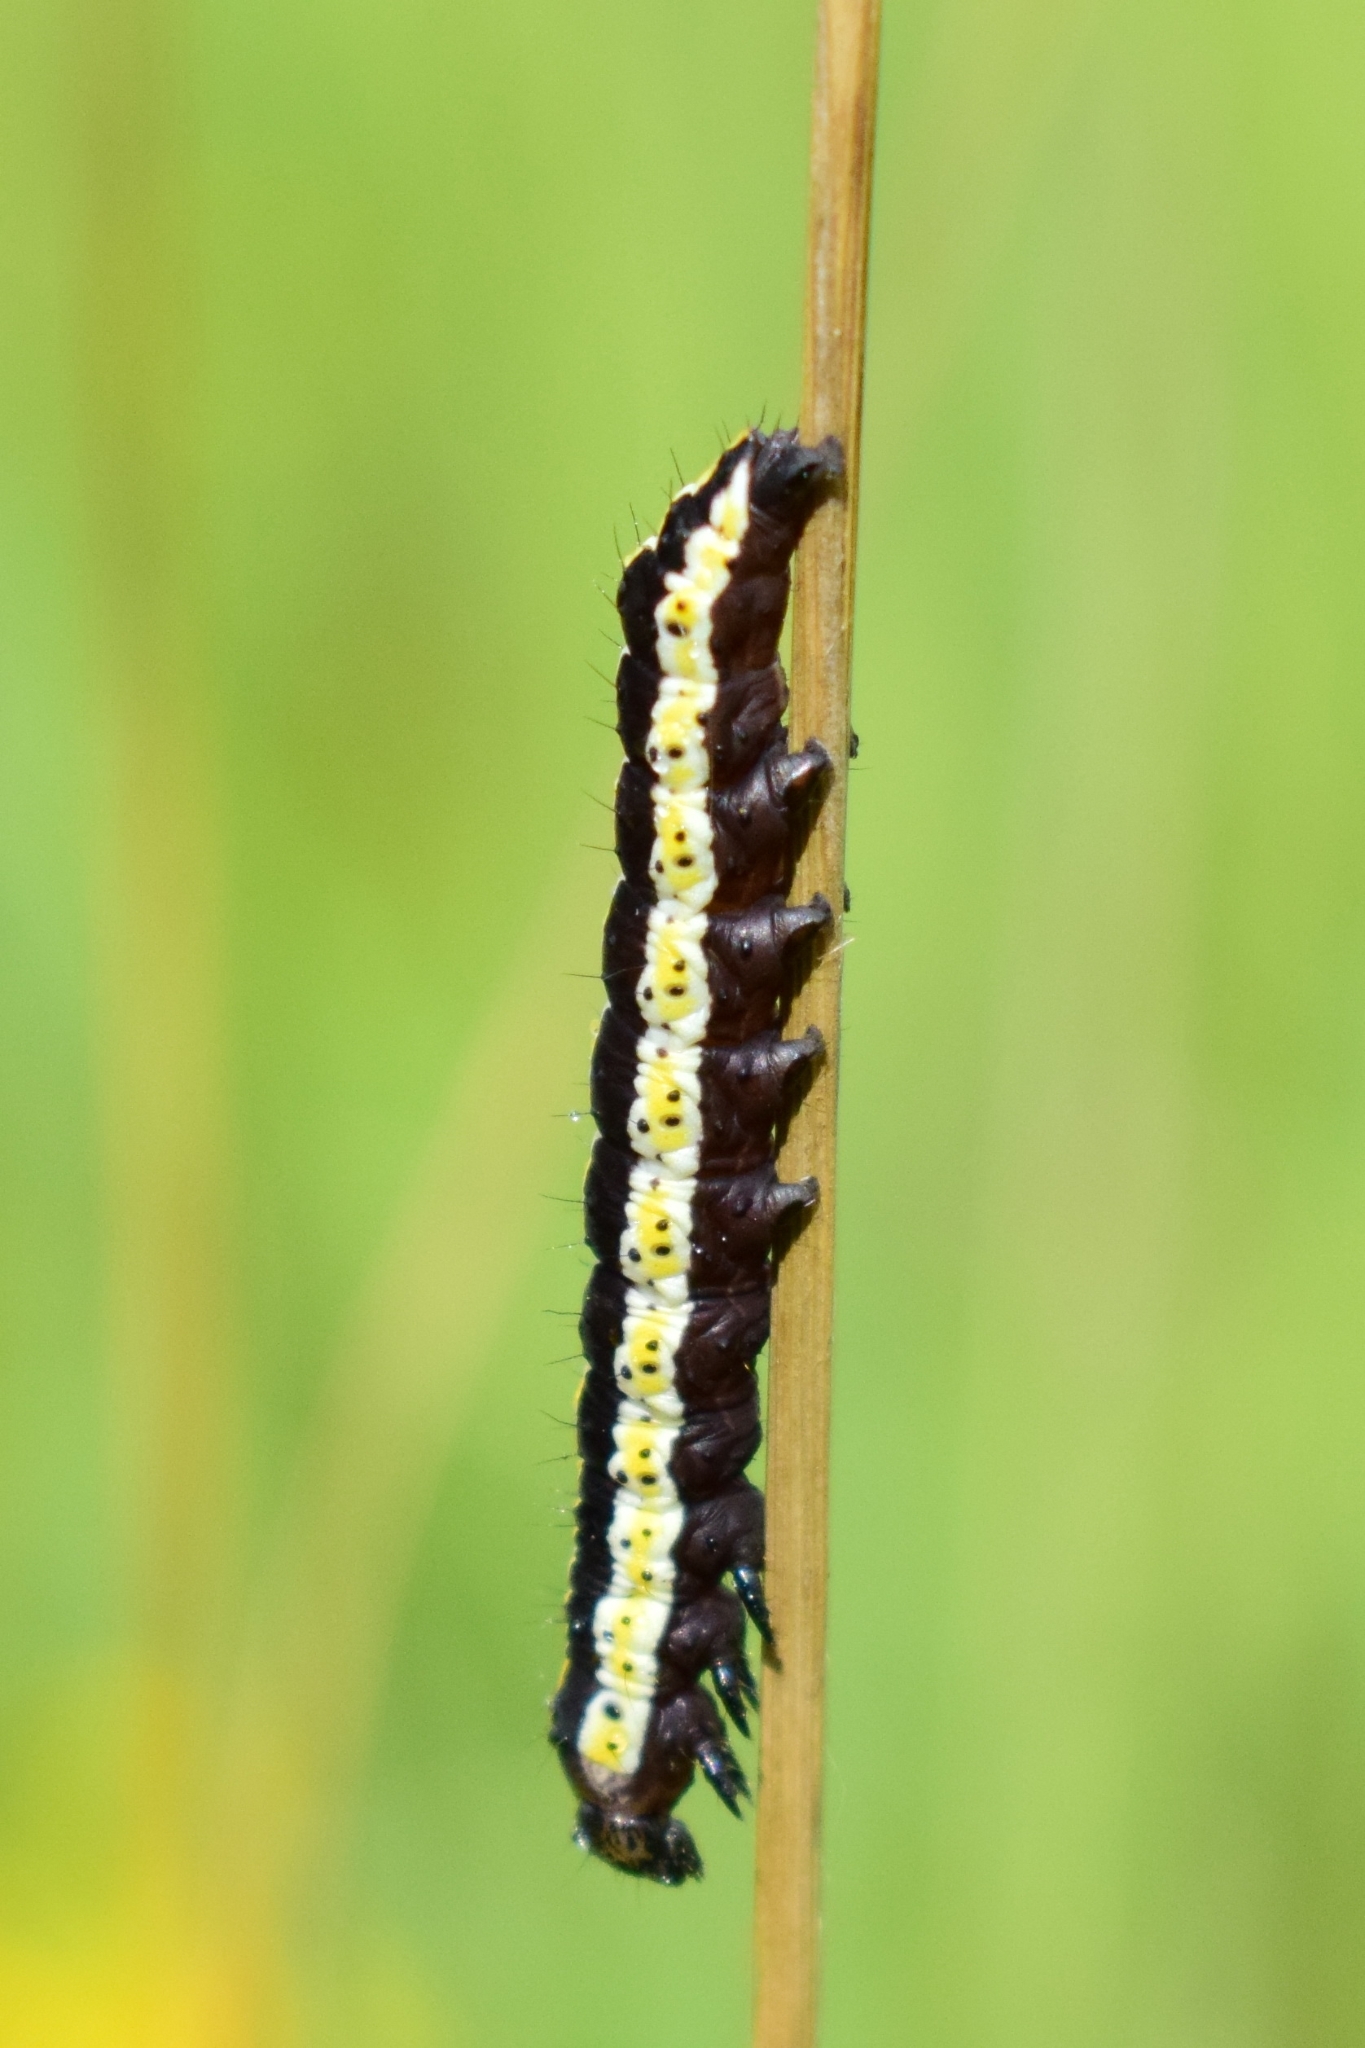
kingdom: Animalia
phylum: Arthropoda
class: Insecta
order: Lepidoptera
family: Noctuidae
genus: Cucullia
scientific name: Cucullia lucifuga
